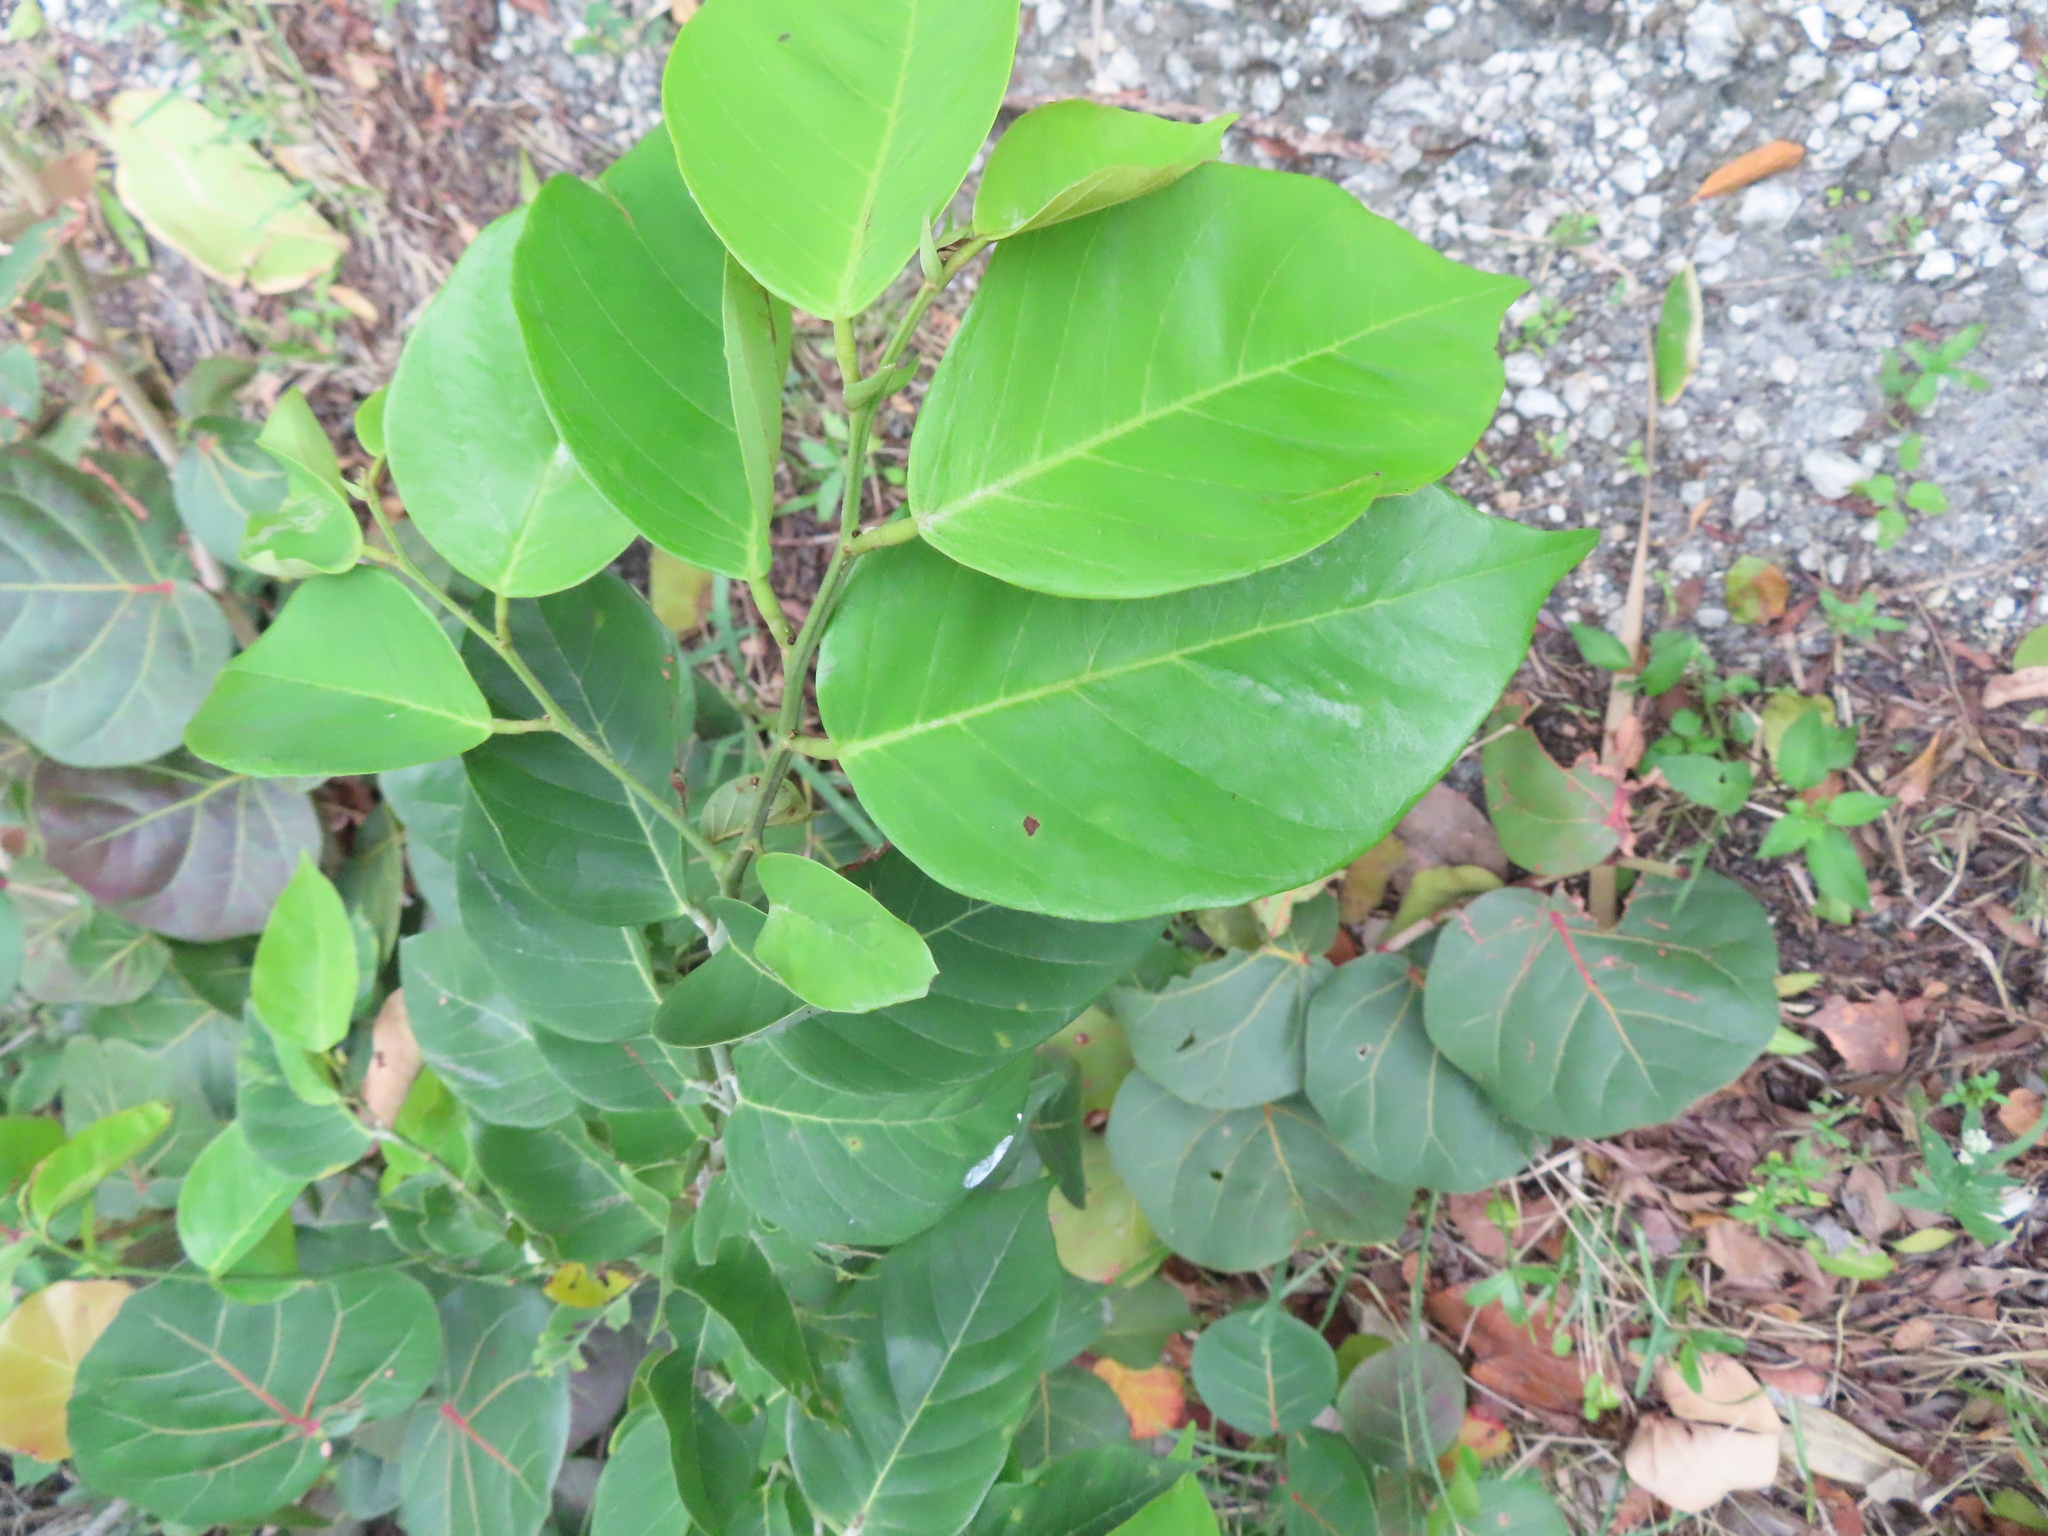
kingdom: Plantae
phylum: Tracheophyta
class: Magnoliopsida
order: Fabales
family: Fabaceae
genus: Dalbergia
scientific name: Dalbergia ecastaphyllum
